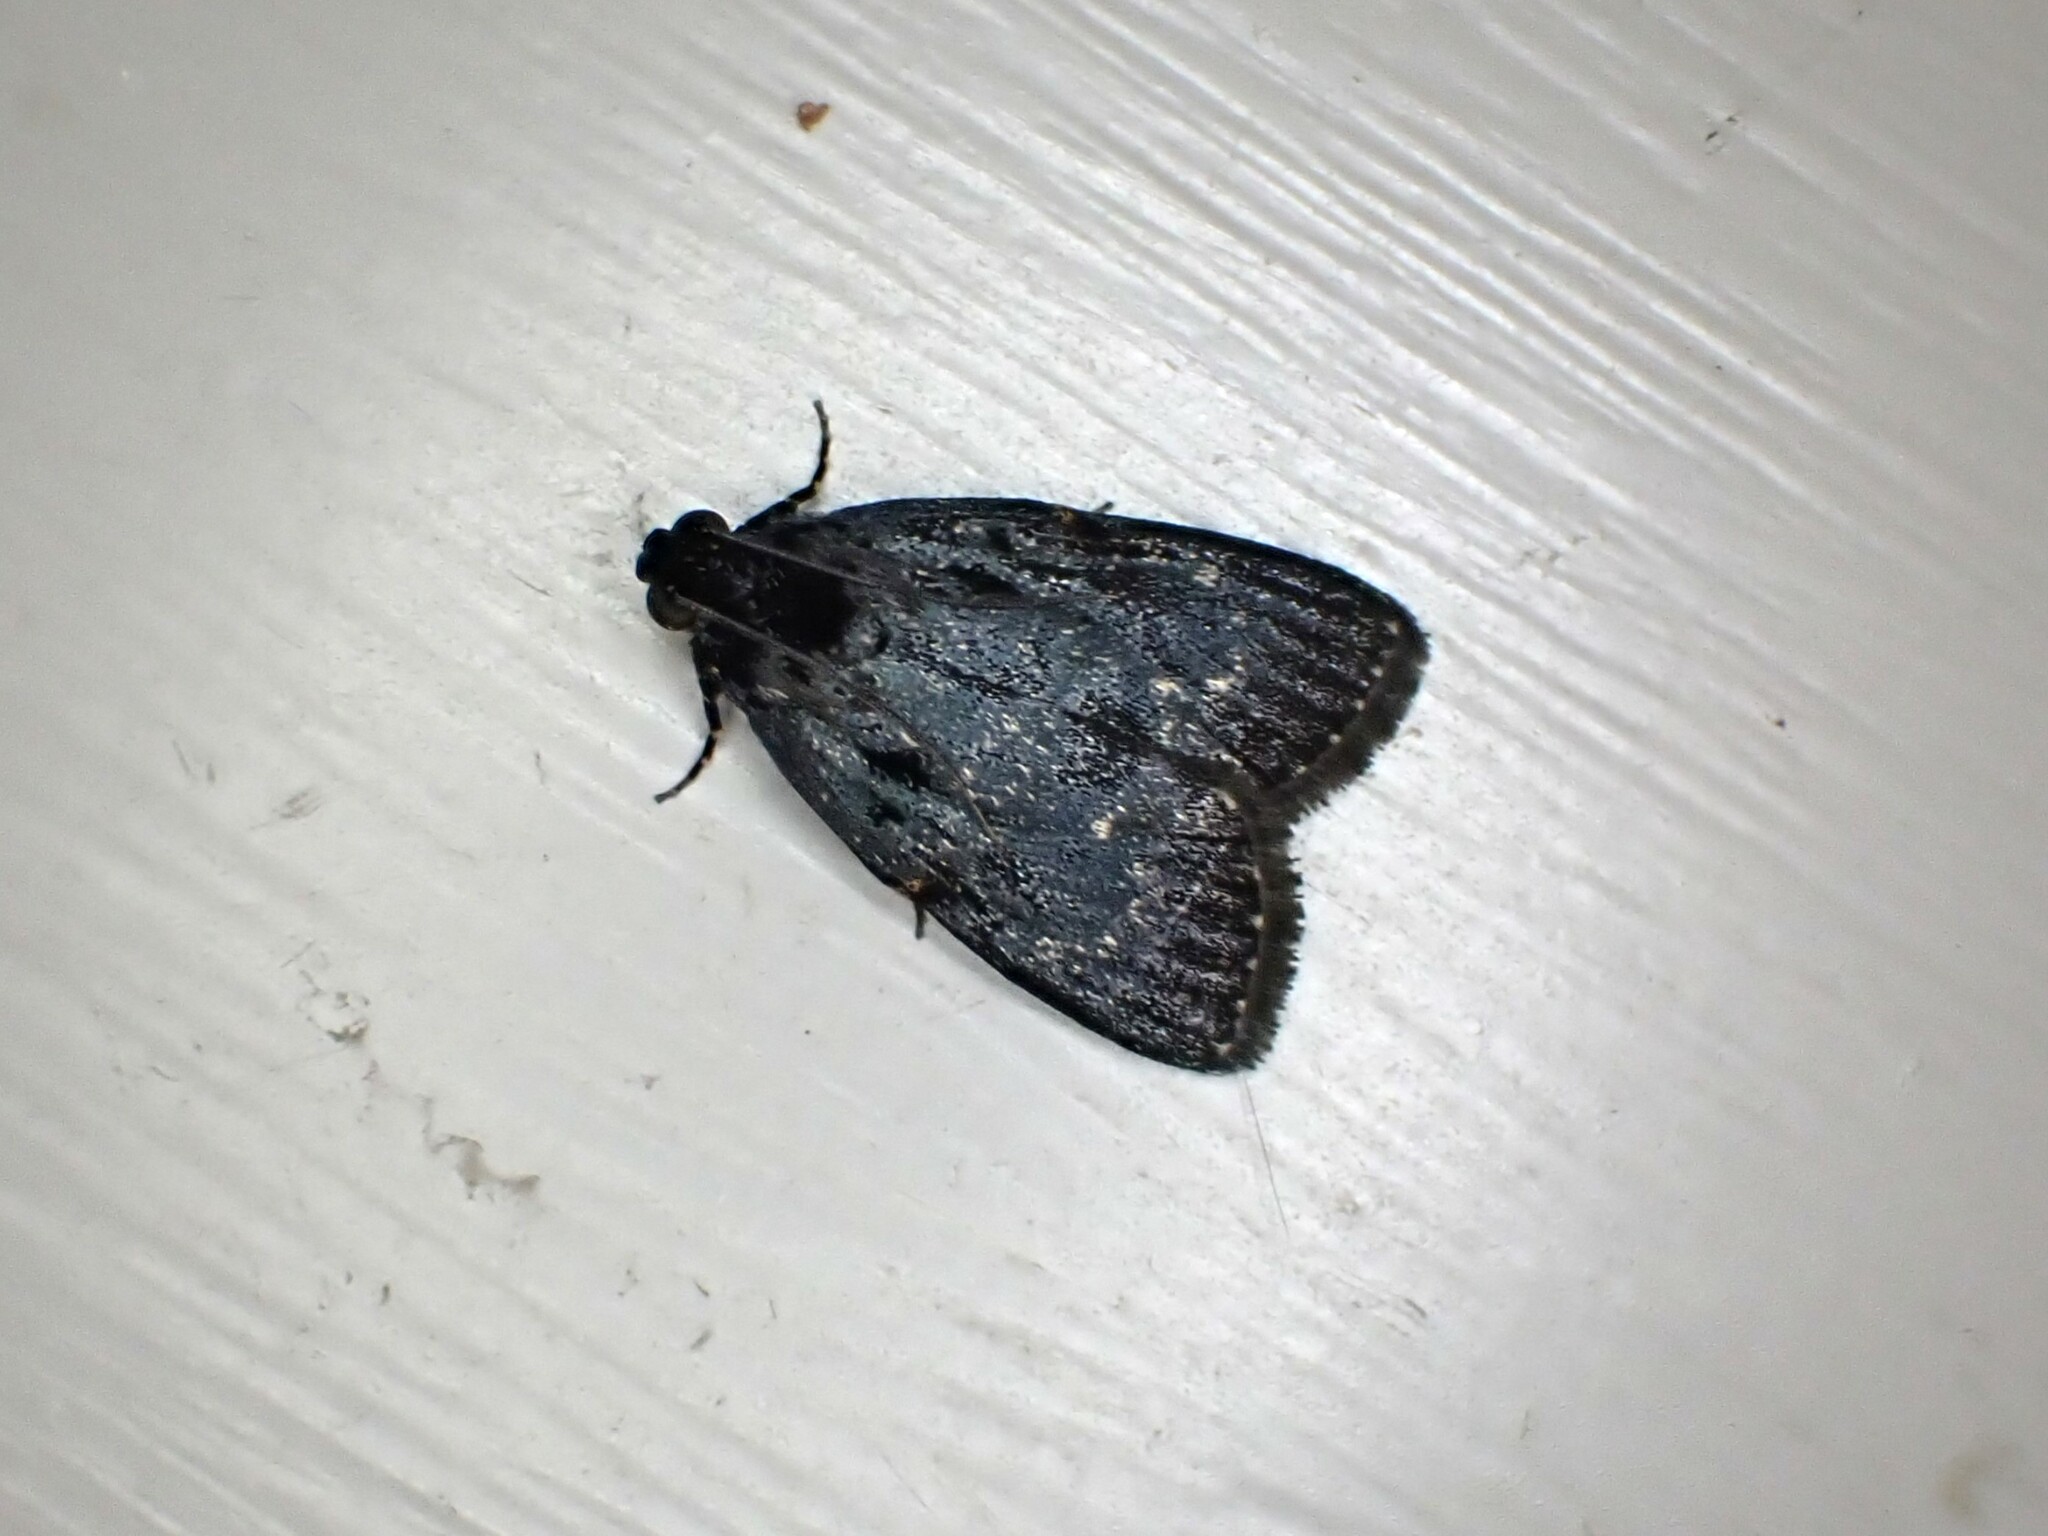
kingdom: Animalia
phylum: Arthropoda
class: Insecta
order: Lepidoptera
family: Pyralidae
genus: Stericta
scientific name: Stericta carbonalis
